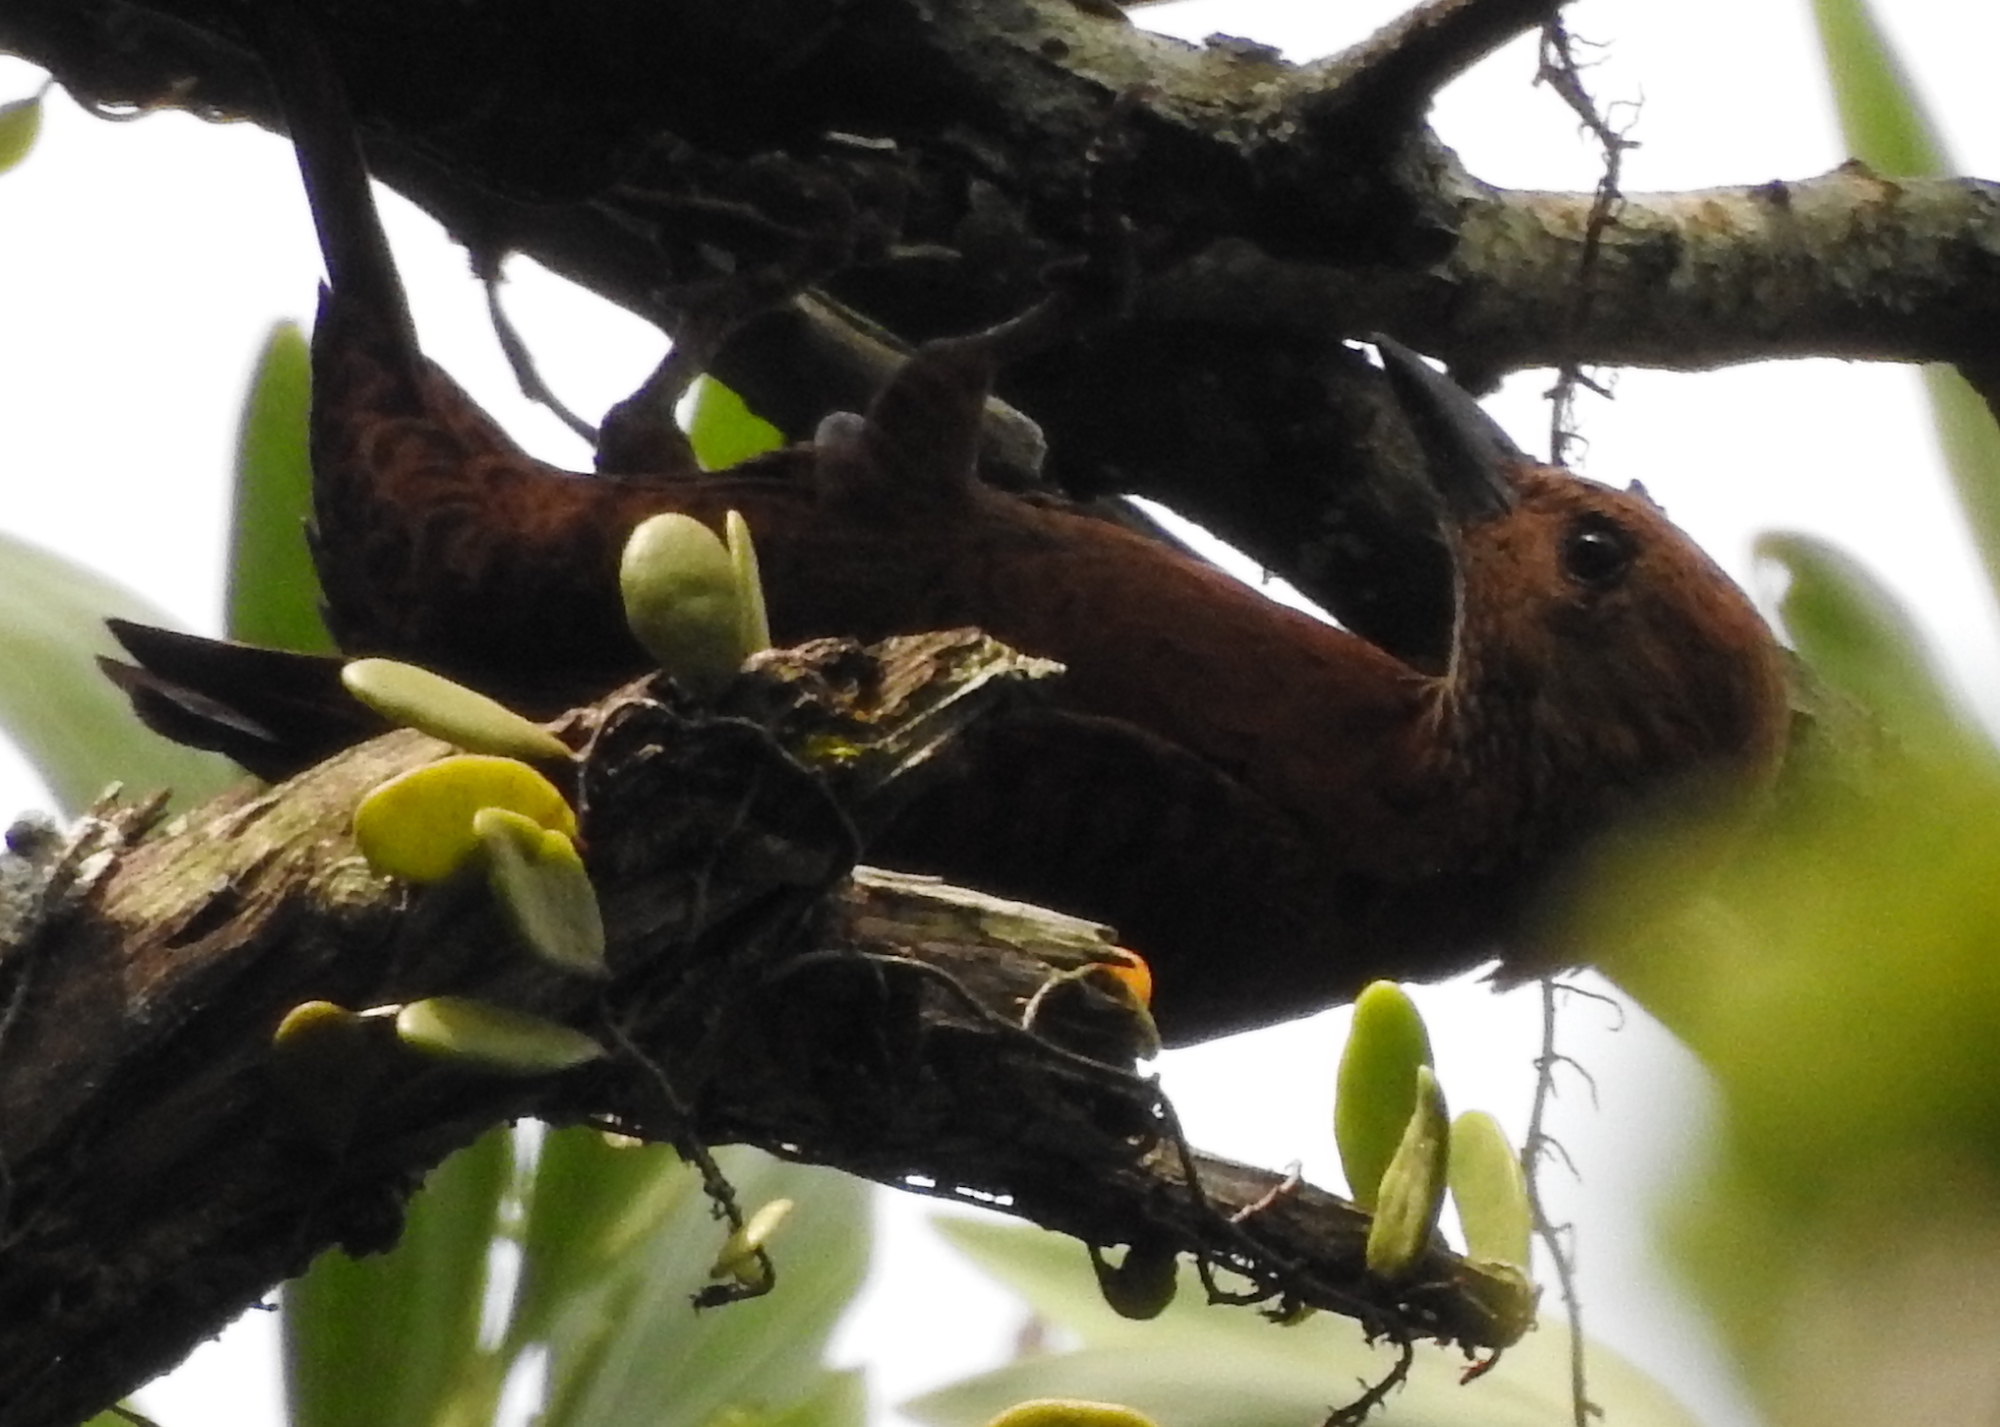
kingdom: Animalia
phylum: Chordata
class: Aves
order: Piciformes
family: Picidae
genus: Micropternus
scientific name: Micropternus brachyurus
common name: Rufous woodpecker
